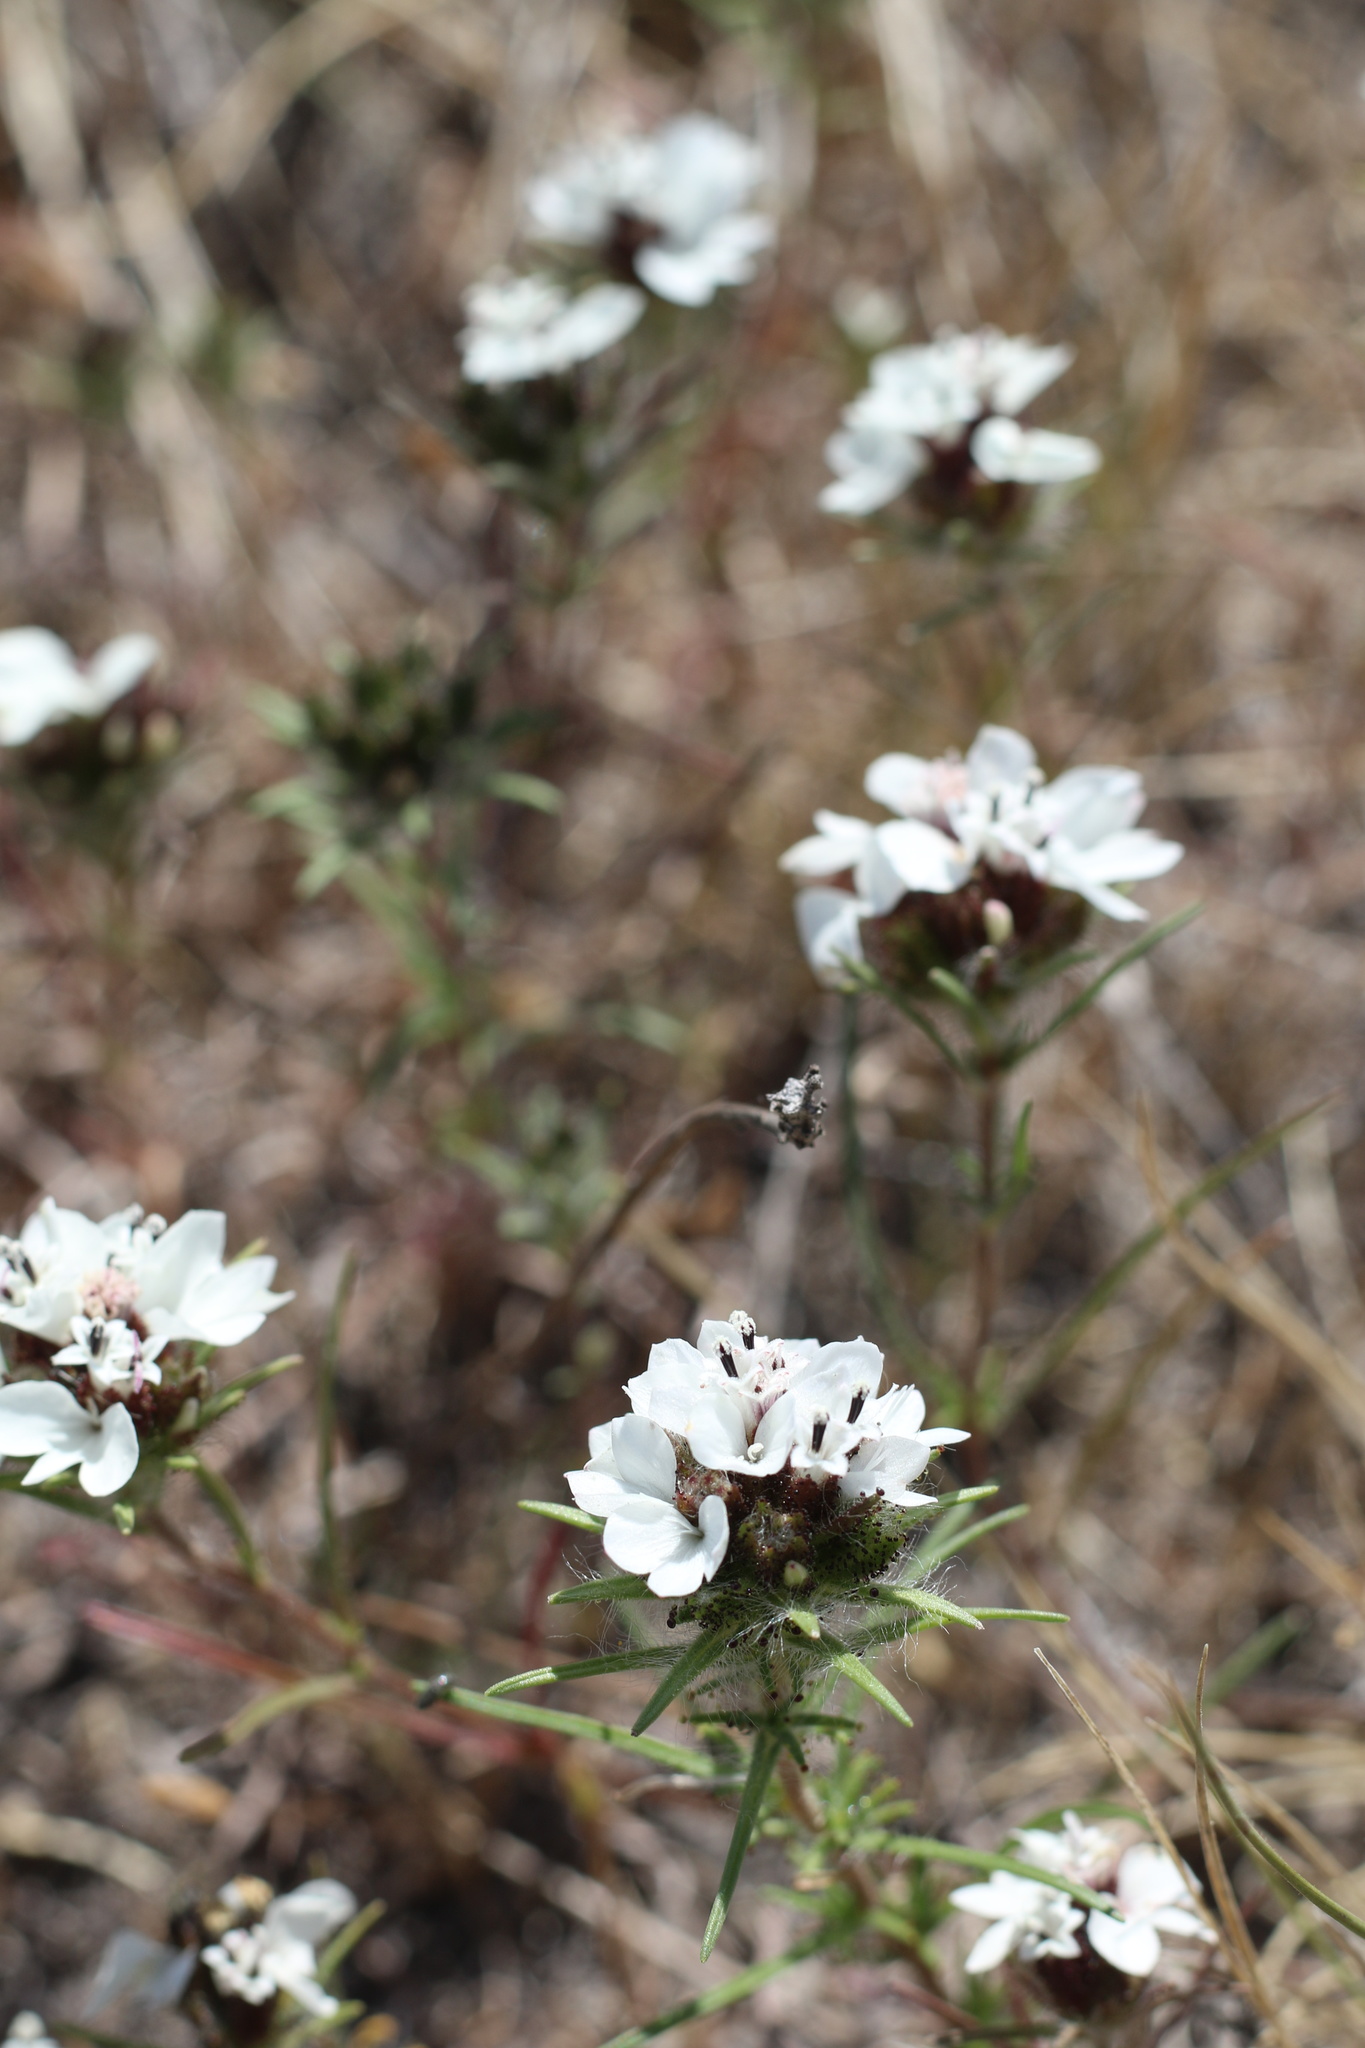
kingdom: Plantae
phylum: Tracheophyta
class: Magnoliopsida
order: Asterales
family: Asteraceae
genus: Calycadenia
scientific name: Calycadenia multiglandulosa
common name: Sticky calycadenia
